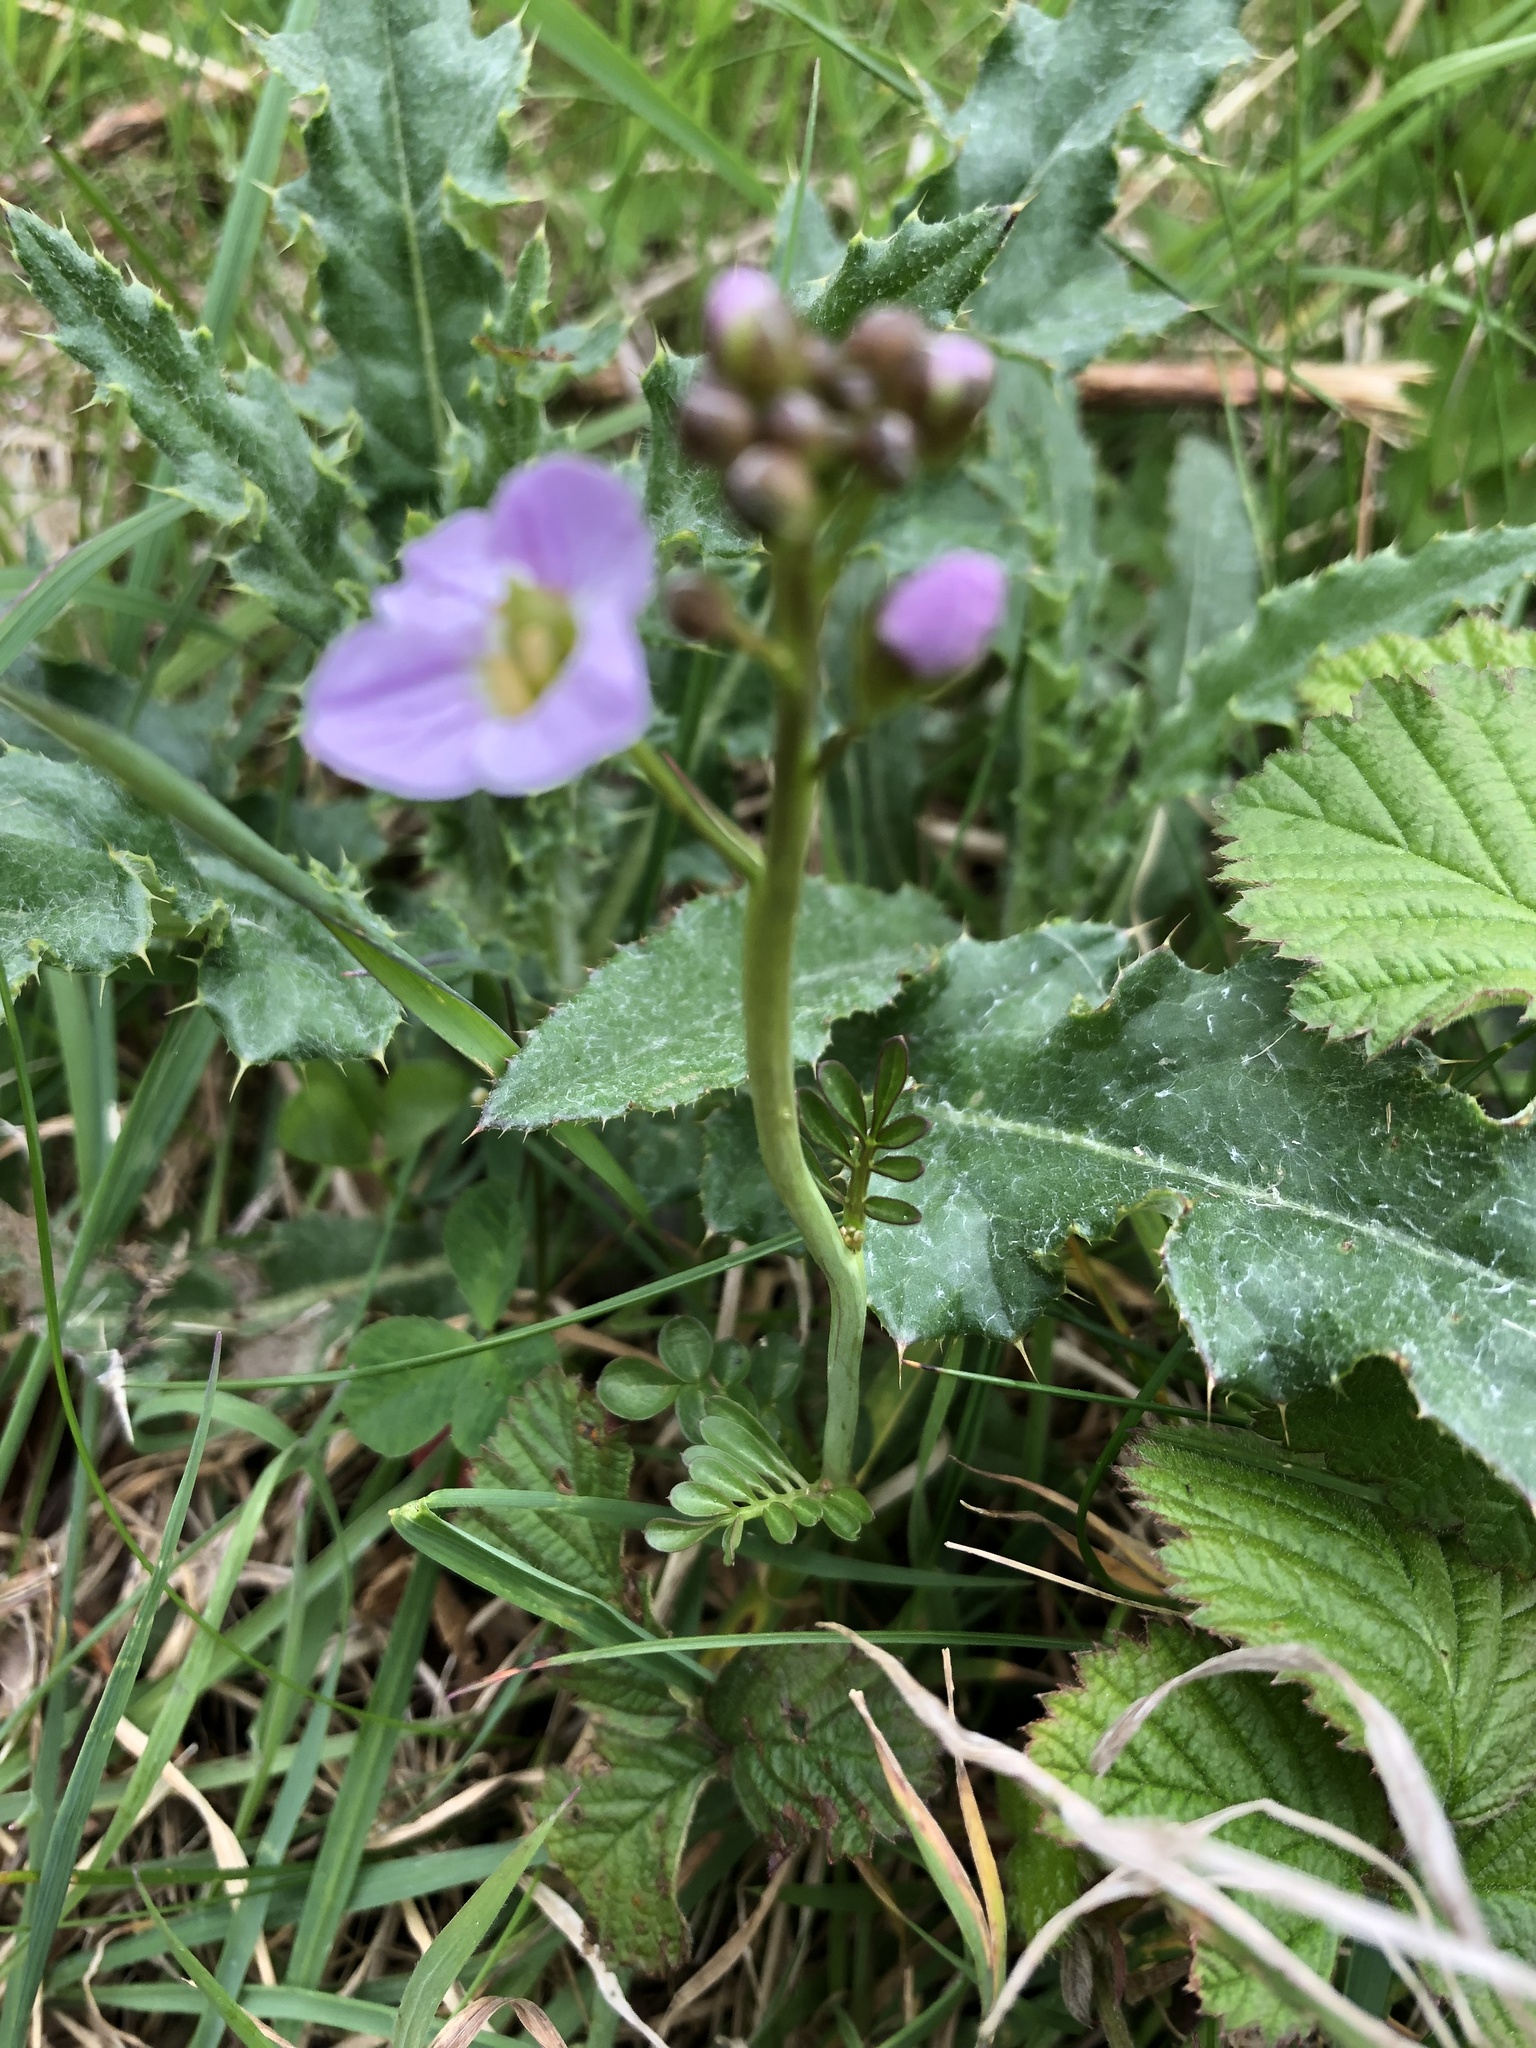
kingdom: Plantae
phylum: Tracheophyta
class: Magnoliopsida
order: Brassicales
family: Brassicaceae
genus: Cardamine
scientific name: Cardamine pratensis
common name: Cuckoo flower
